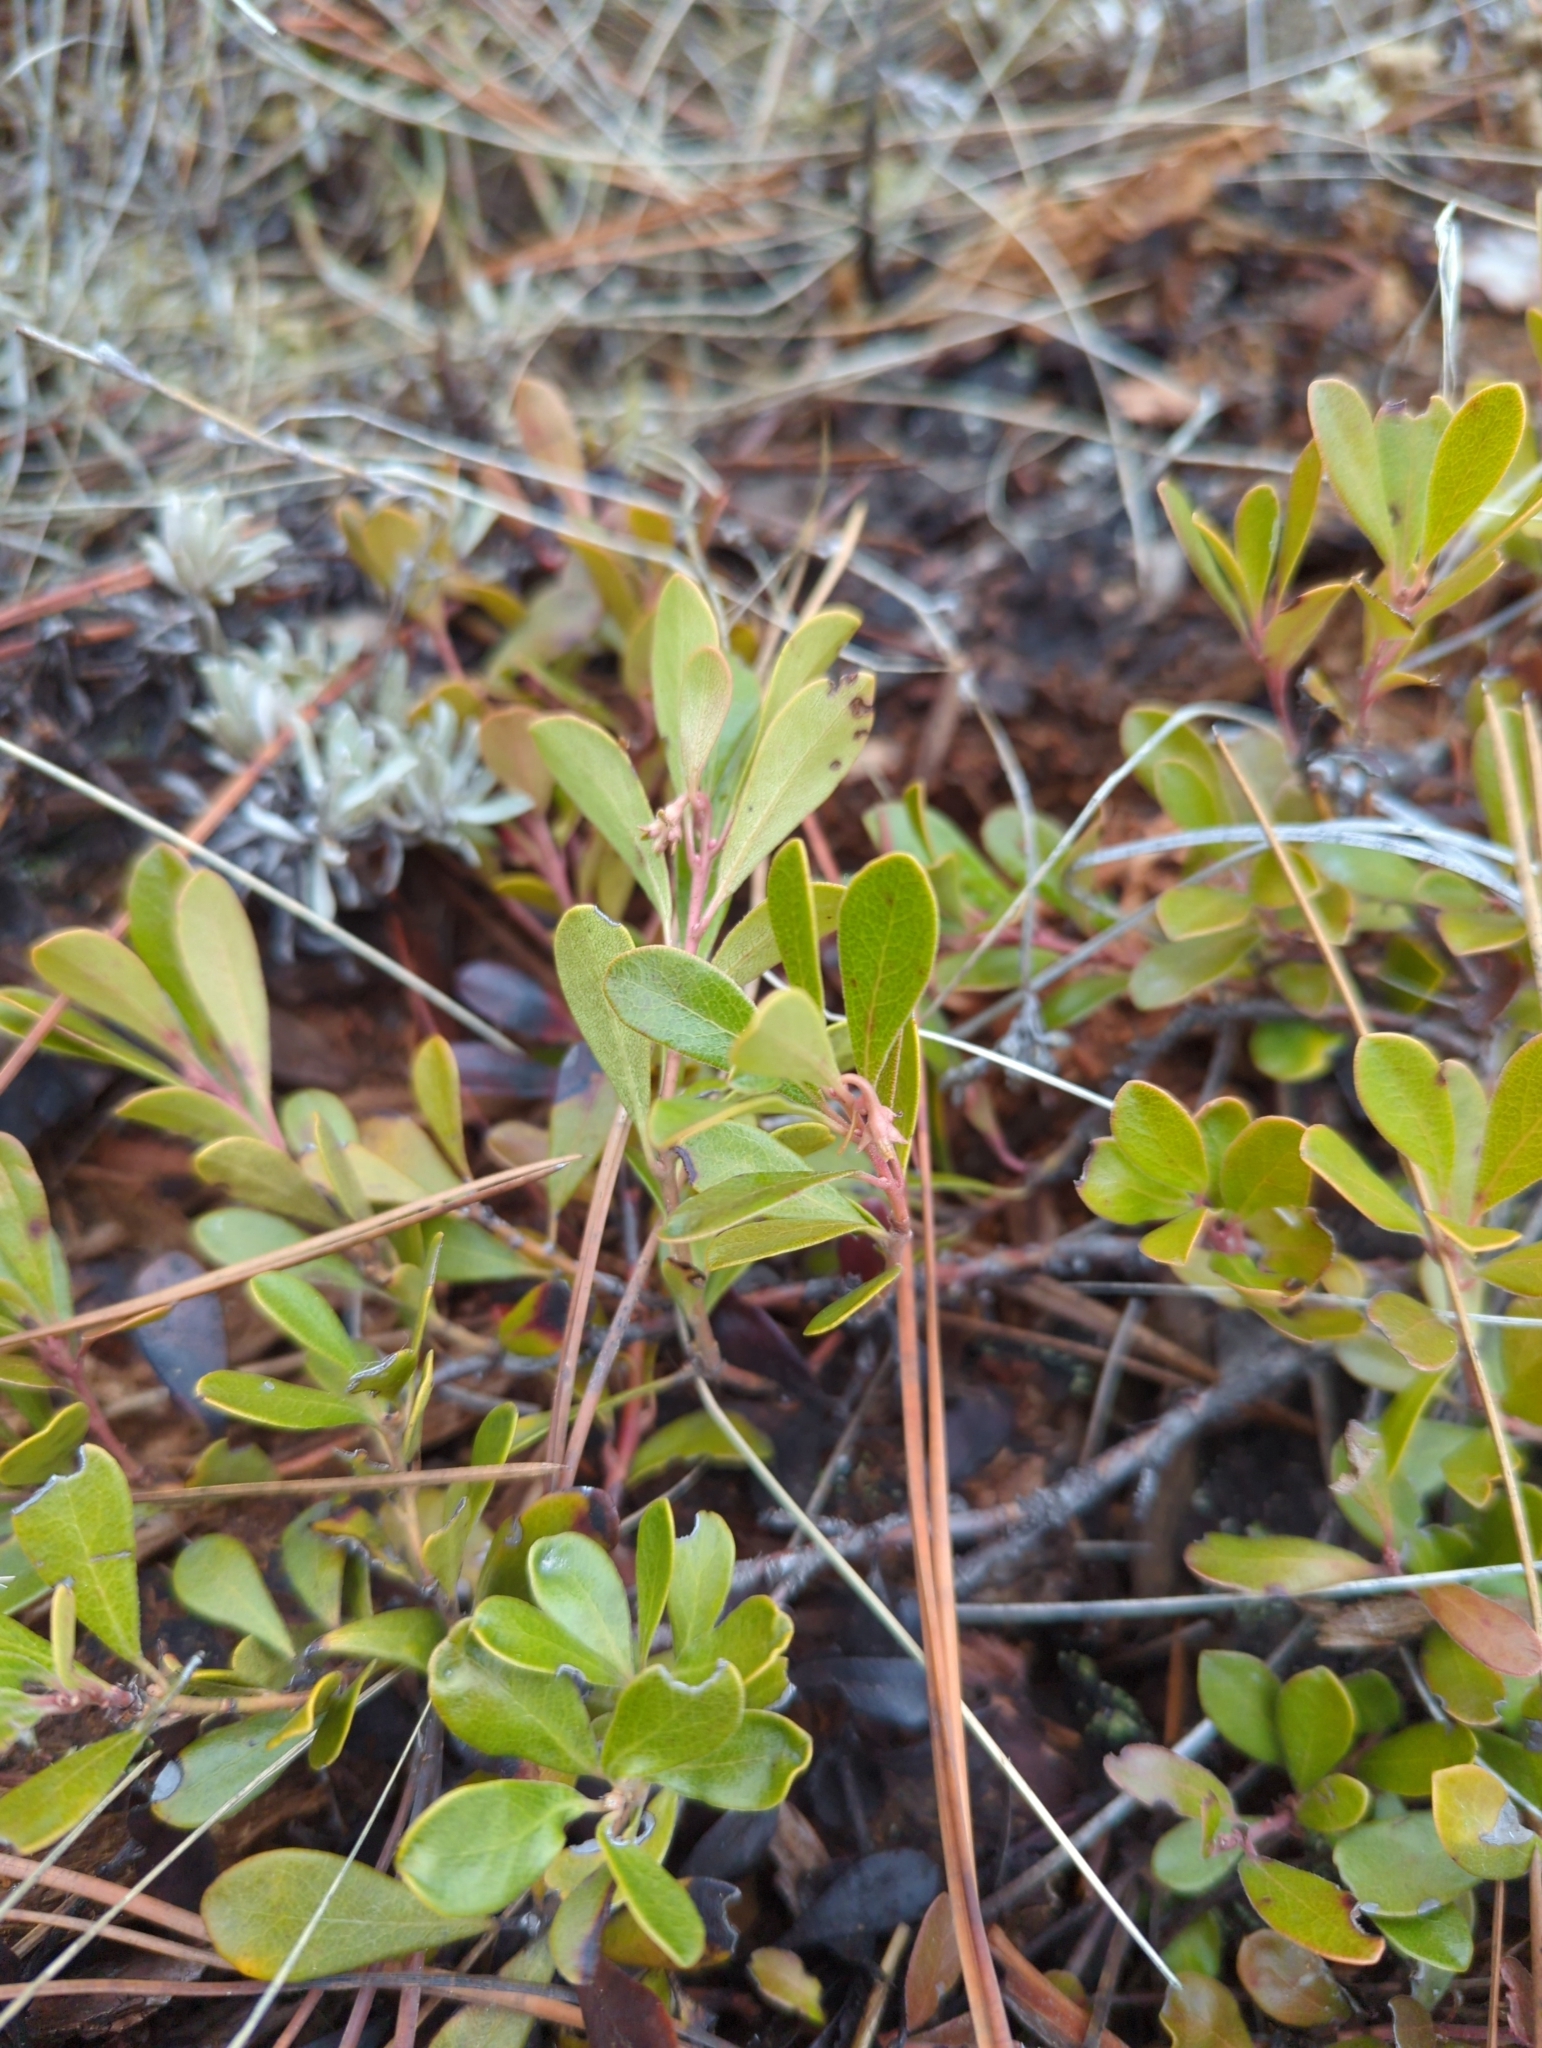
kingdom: Plantae
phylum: Tracheophyta
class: Magnoliopsida
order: Ericales
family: Ericaceae
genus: Arctostaphylos
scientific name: Arctostaphylos uva-ursi
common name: Bearberry
